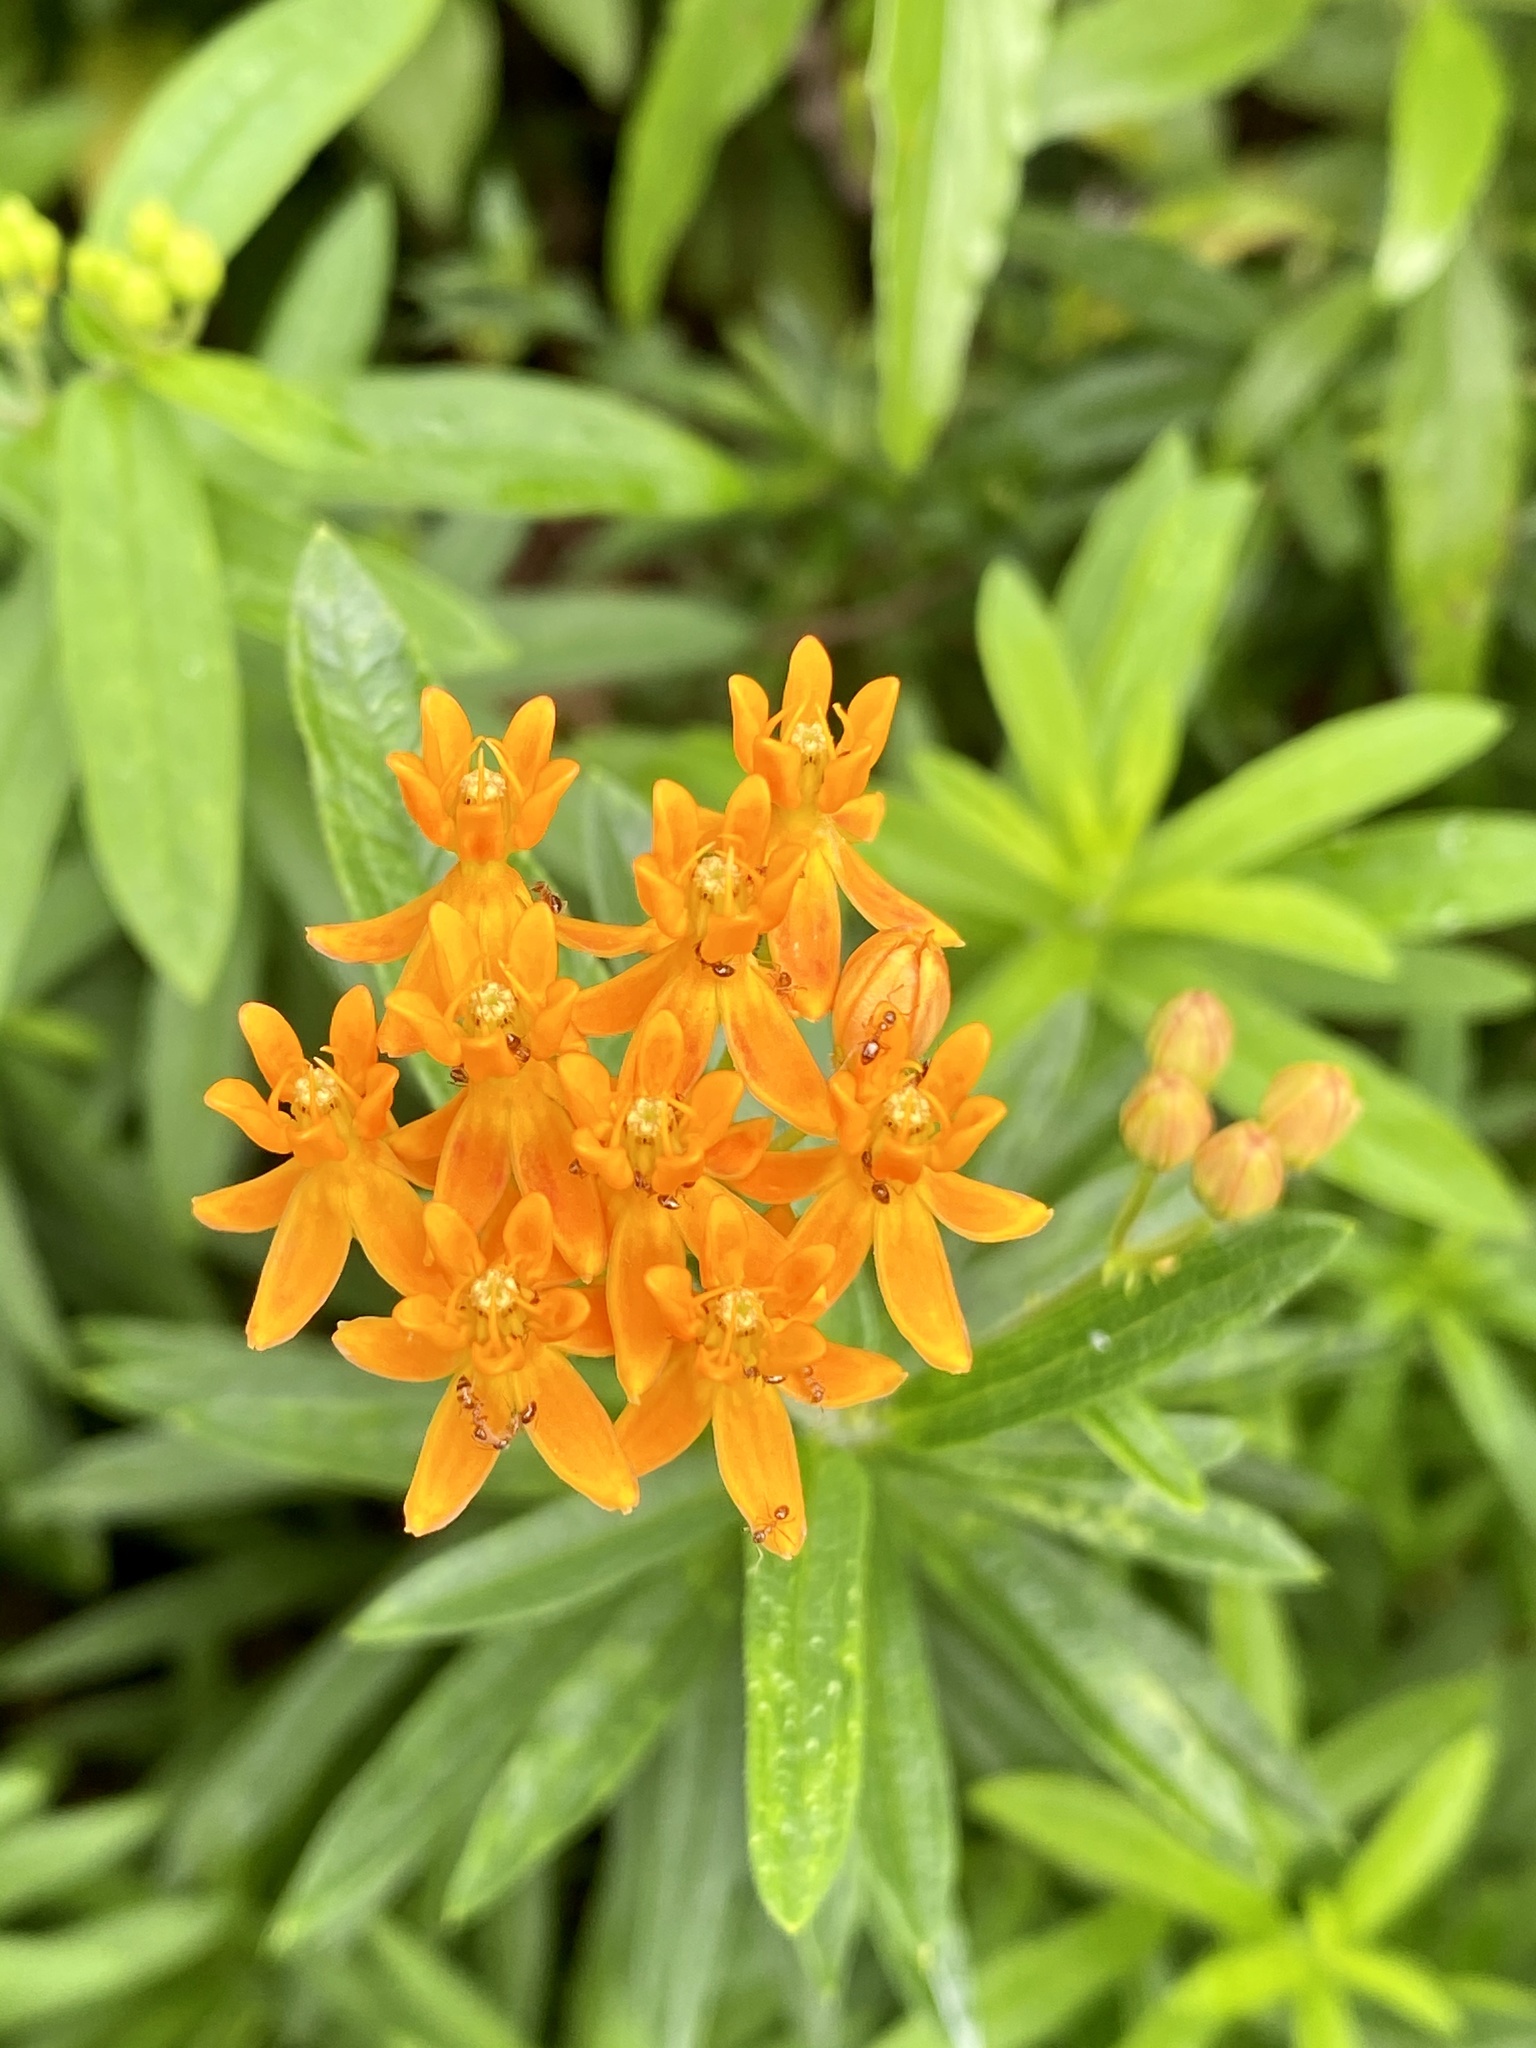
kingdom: Plantae
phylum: Tracheophyta
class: Magnoliopsida
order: Gentianales
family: Apocynaceae
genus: Asclepias
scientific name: Asclepias tuberosa
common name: Butterfly milkweed
